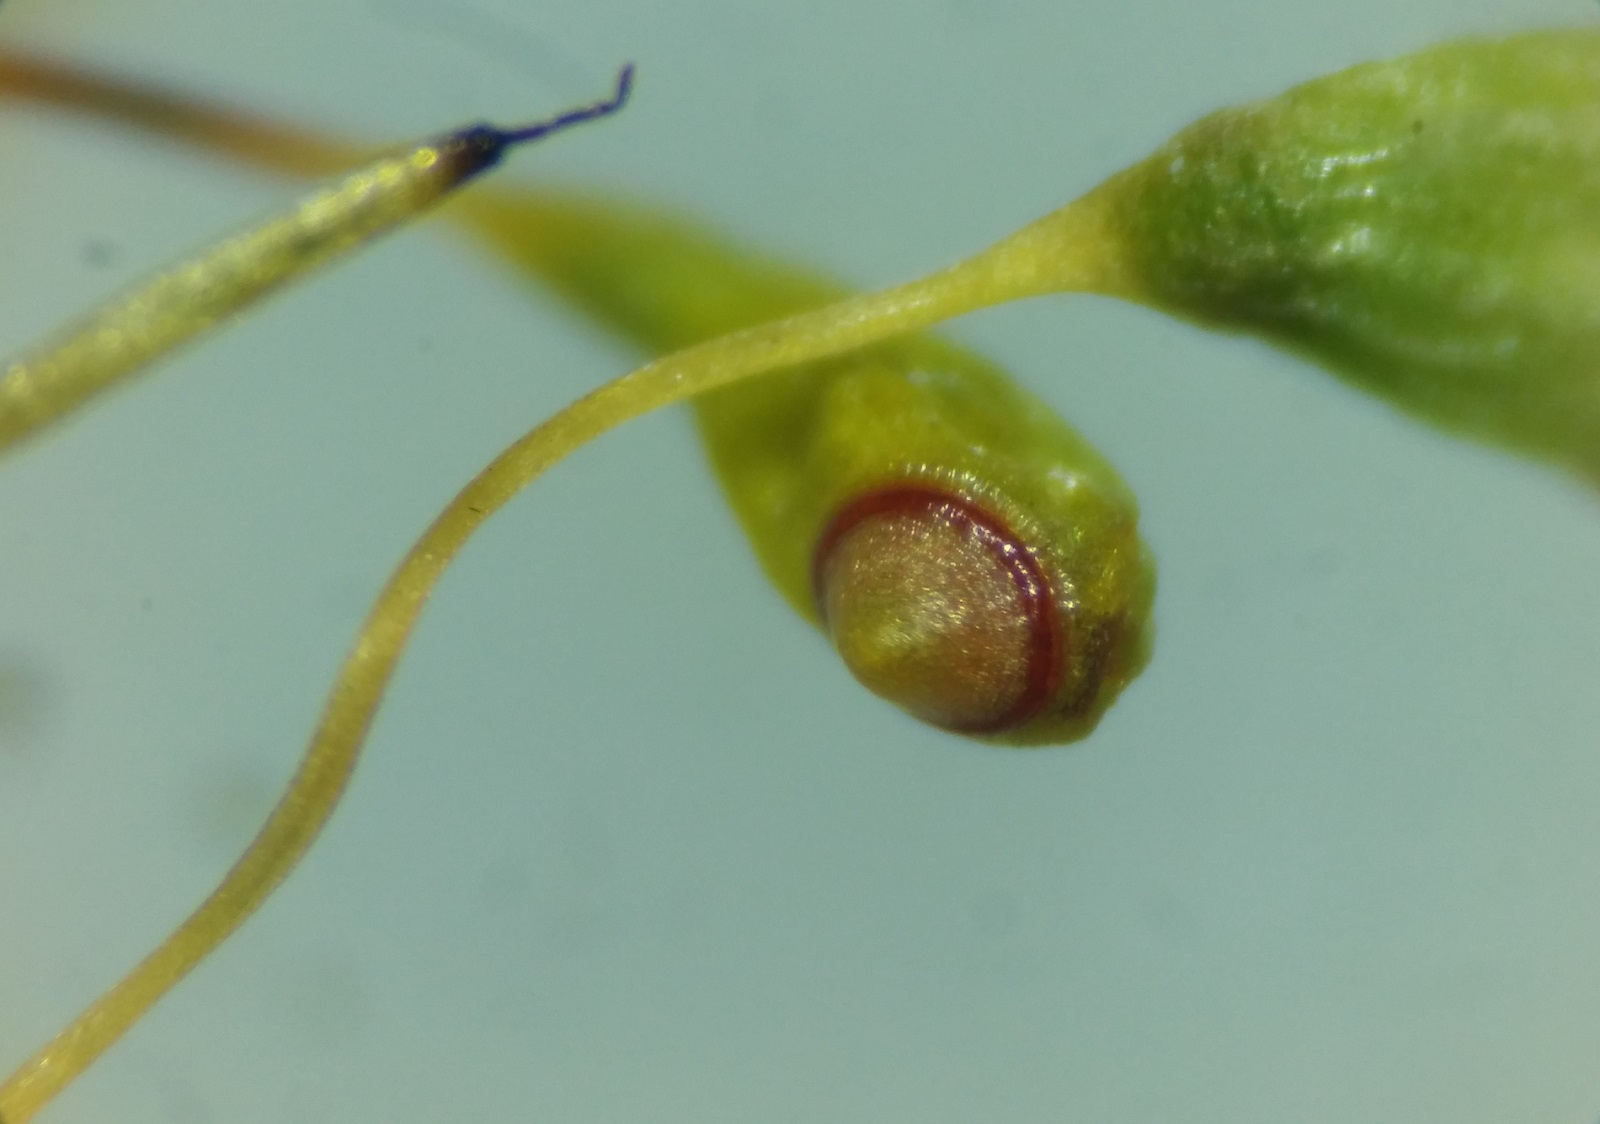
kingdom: Plantae
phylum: Bryophyta
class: Bryopsida
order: Funariales
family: Funariaceae
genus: Funaria
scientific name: Funaria hygrometrica
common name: Common cord moss
